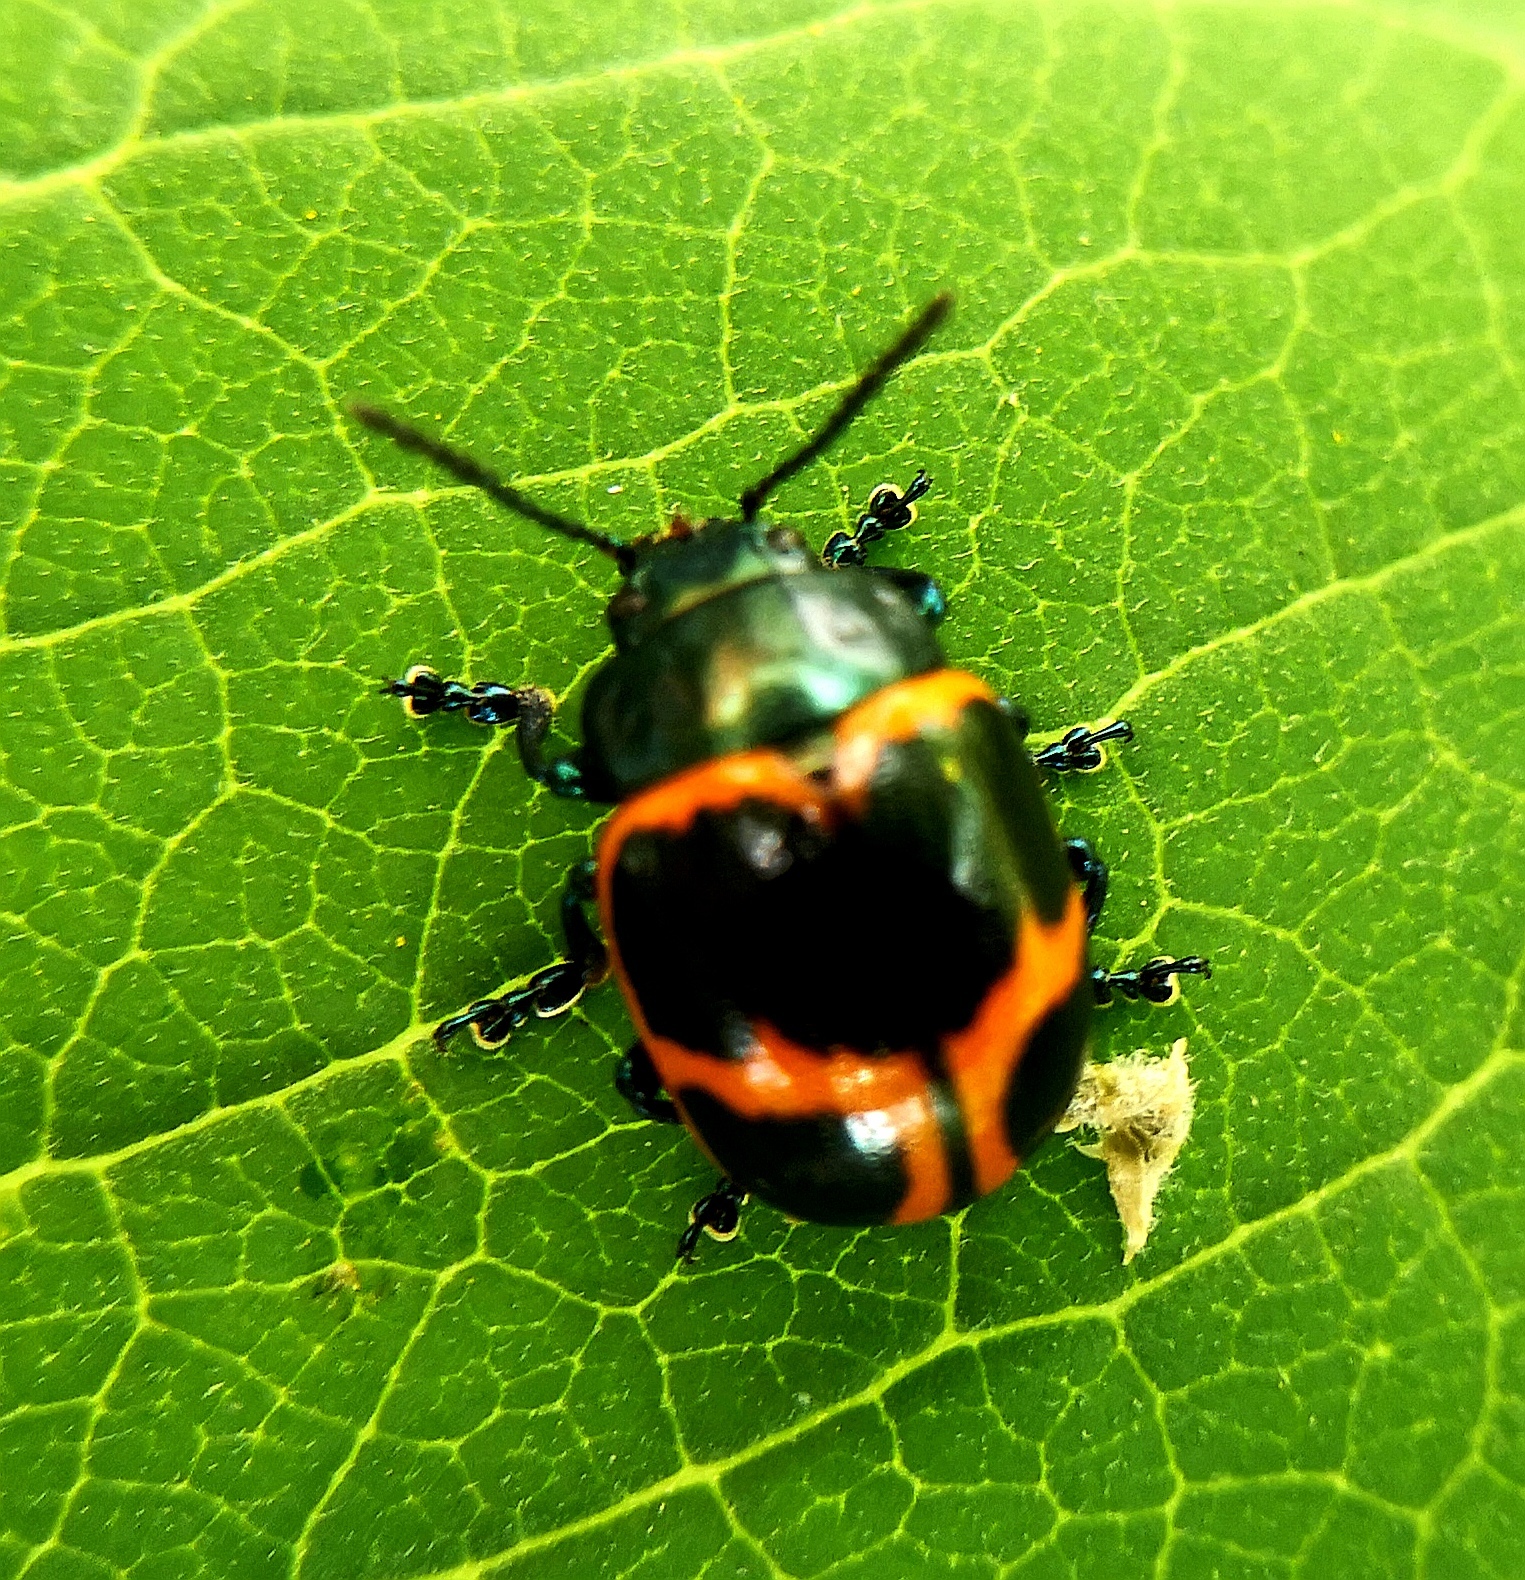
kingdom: Animalia
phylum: Arthropoda
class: Insecta
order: Coleoptera
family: Chrysomelidae
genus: Labidomera
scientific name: Labidomera clivicollis
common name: Swamp milkweed leaf beetle
